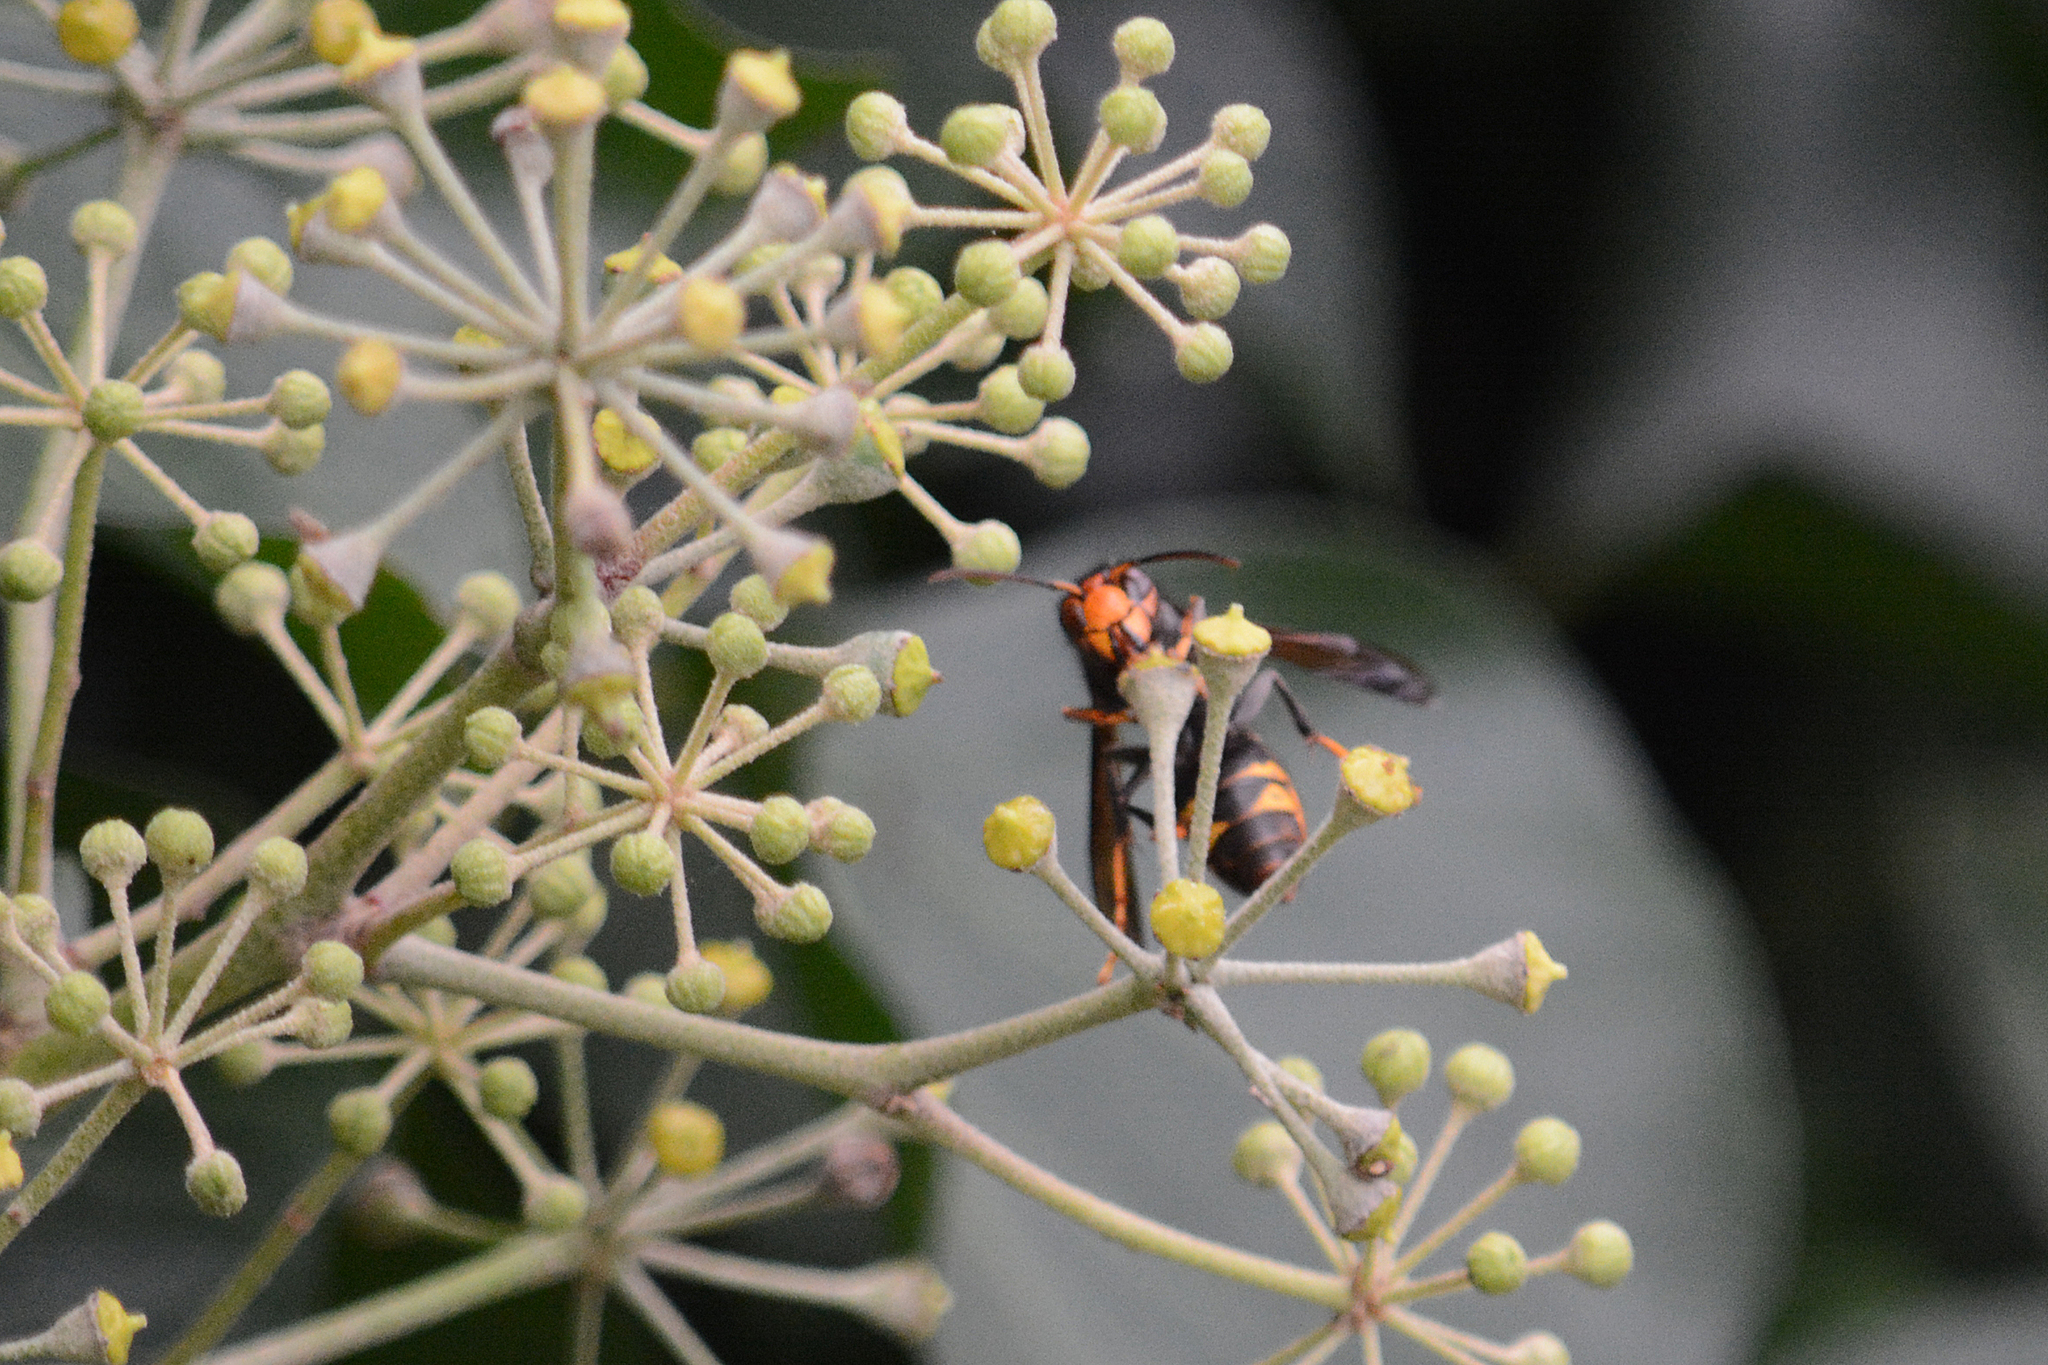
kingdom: Animalia
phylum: Arthropoda
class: Insecta
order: Hymenoptera
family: Vespidae
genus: Vespa
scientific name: Vespa velutina
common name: Asian hornet
